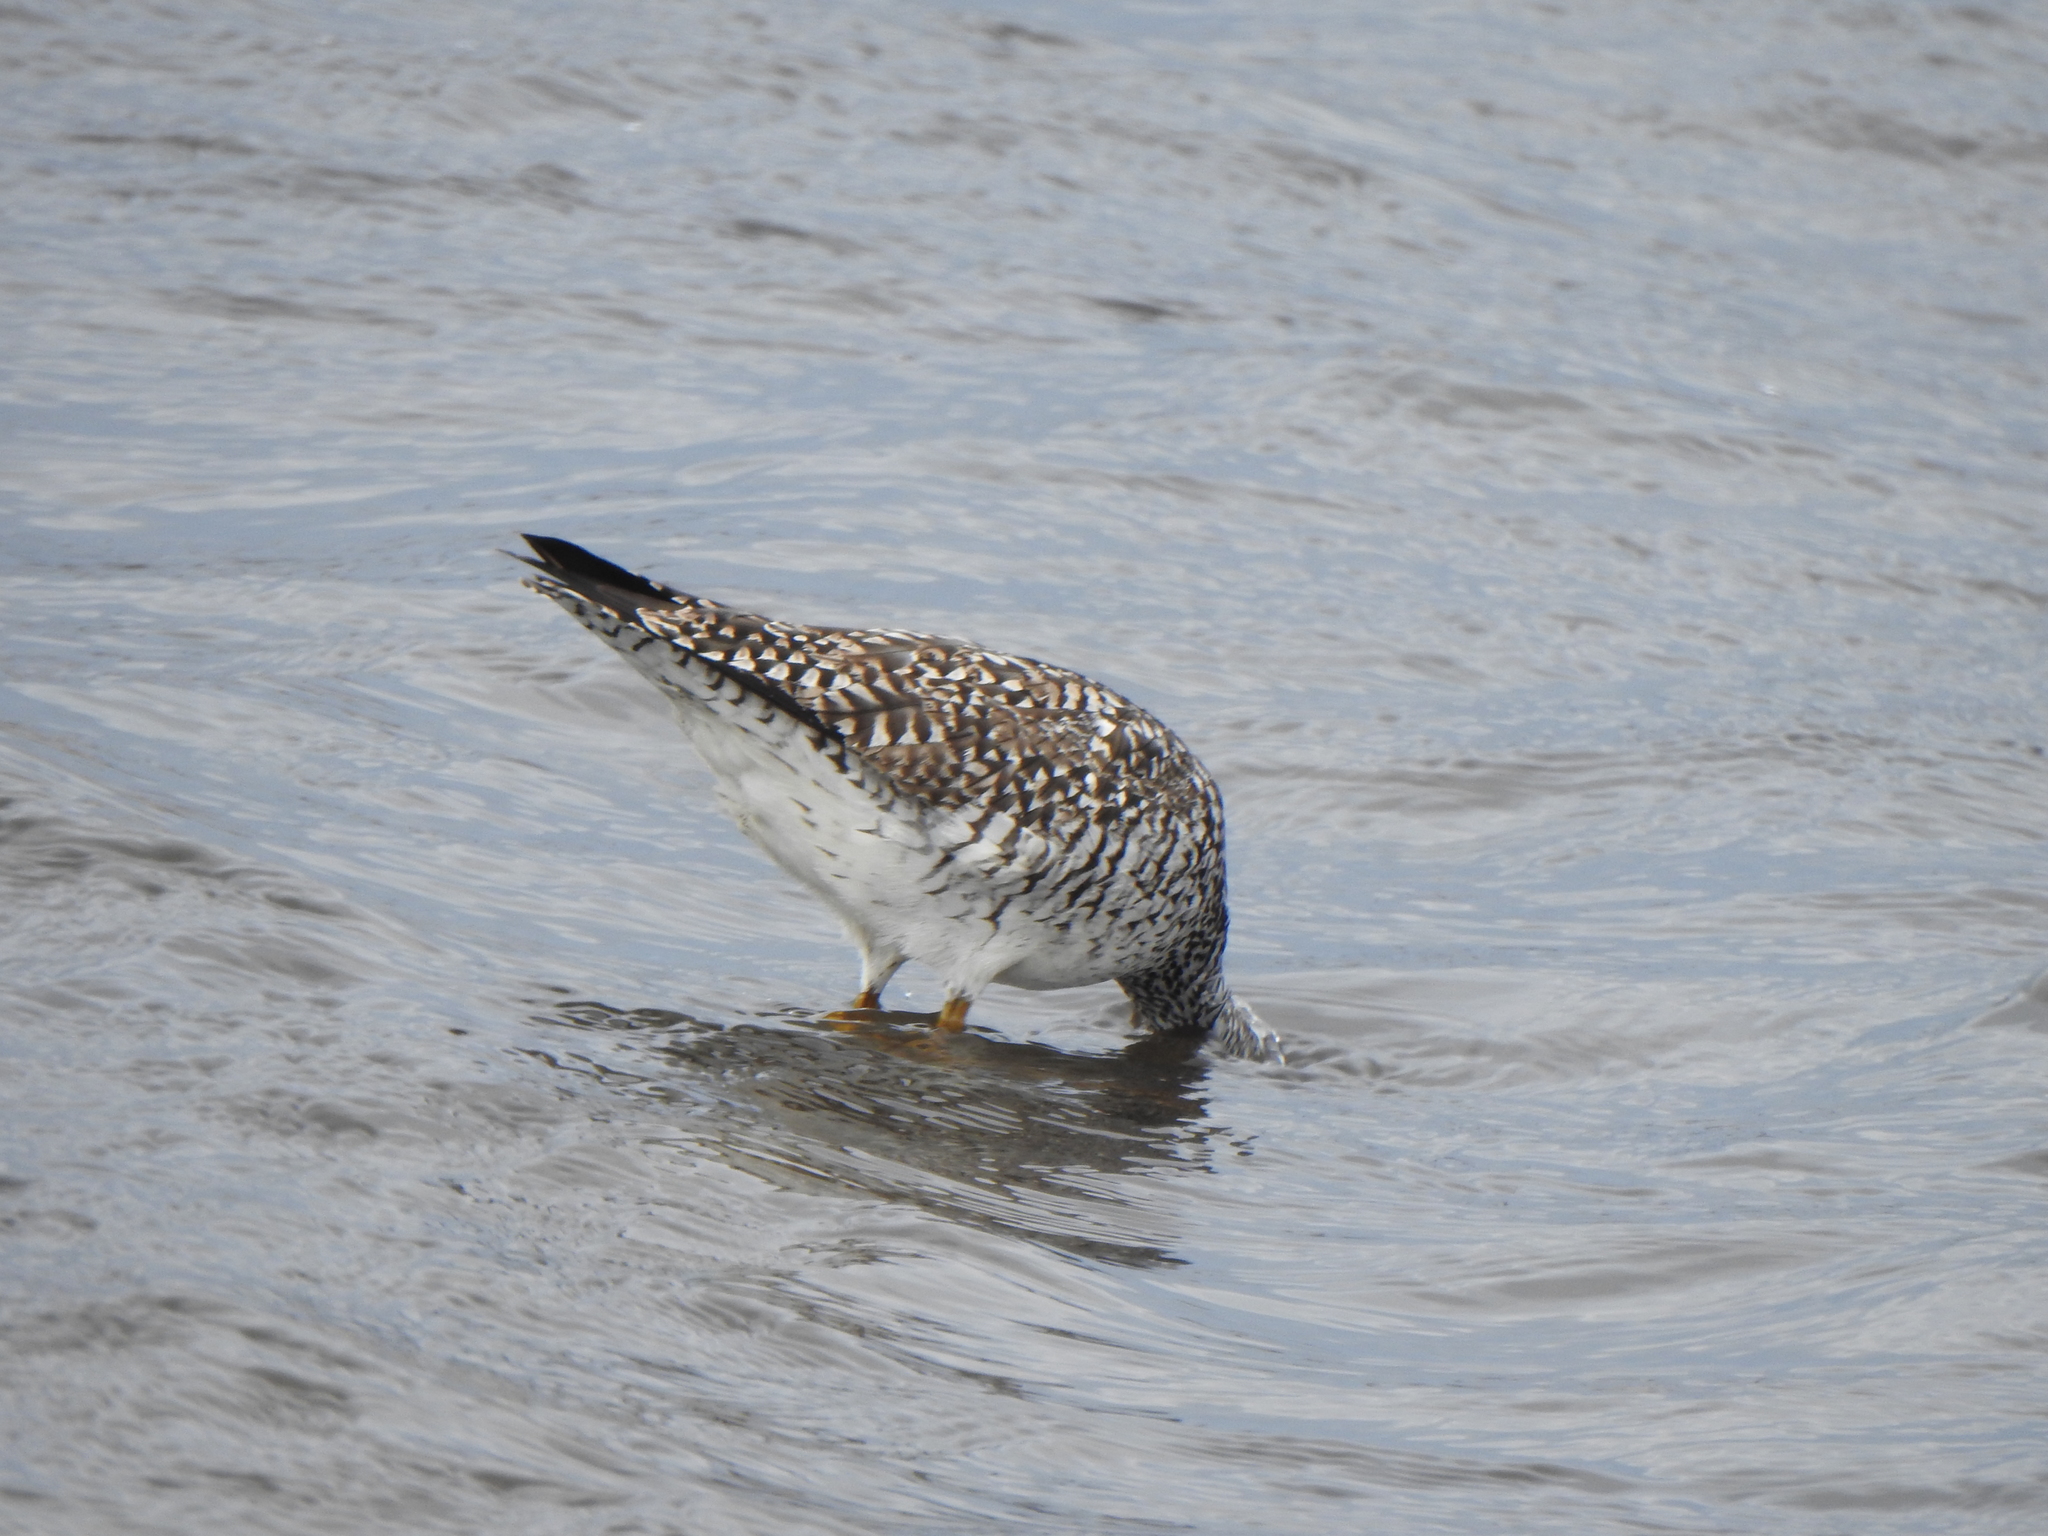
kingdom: Animalia
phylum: Chordata
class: Aves
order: Charadriiformes
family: Scolopacidae
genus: Tringa
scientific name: Tringa melanoleuca
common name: Greater yellowlegs
